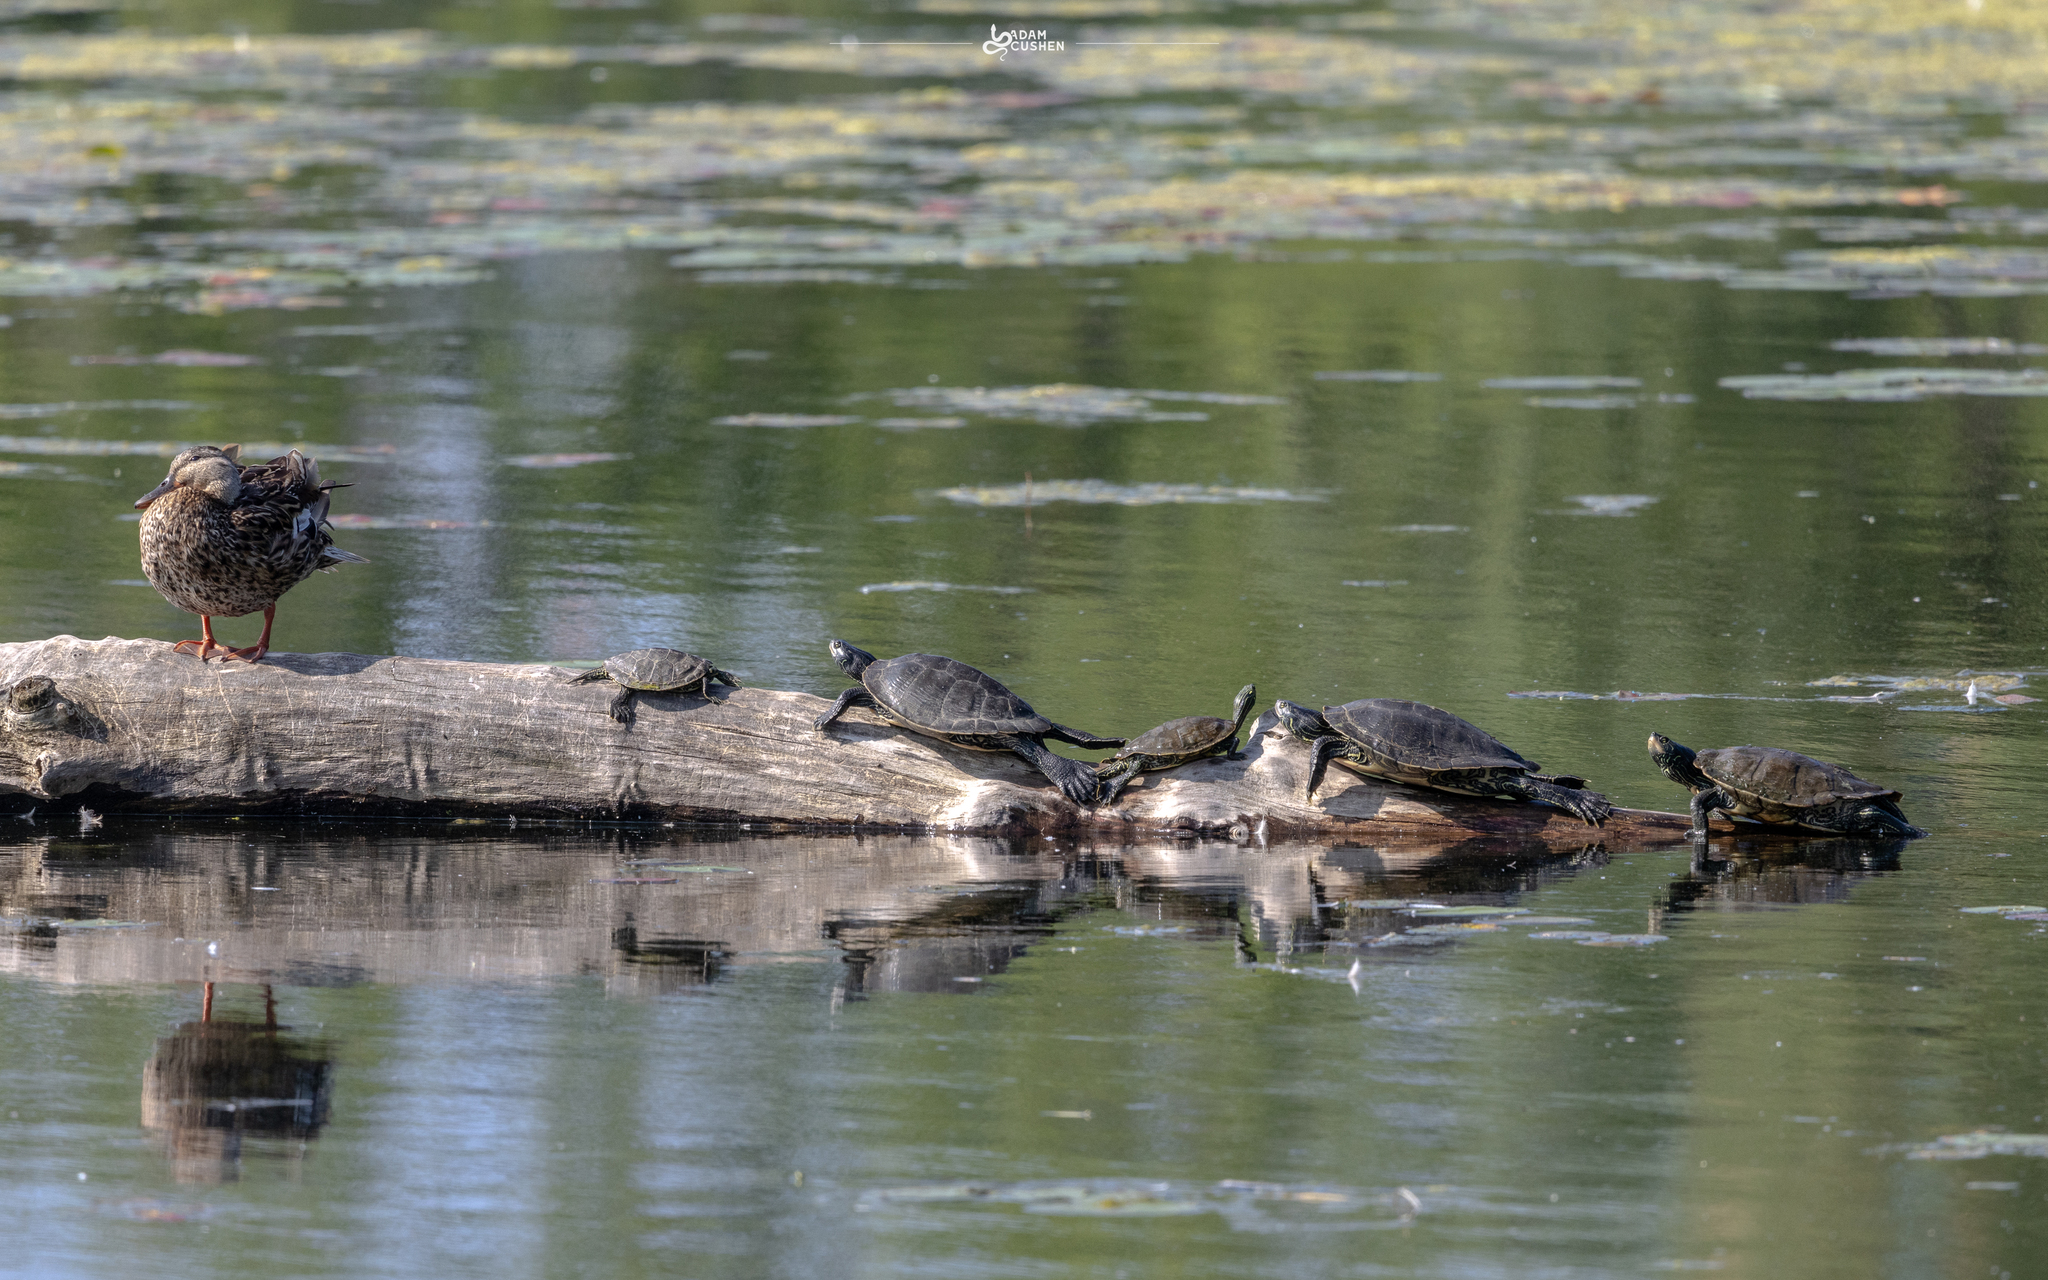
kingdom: Animalia
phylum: Chordata
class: Testudines
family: Emydidae
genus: Graptemys
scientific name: Graptemys geographica
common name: Common map turtle
